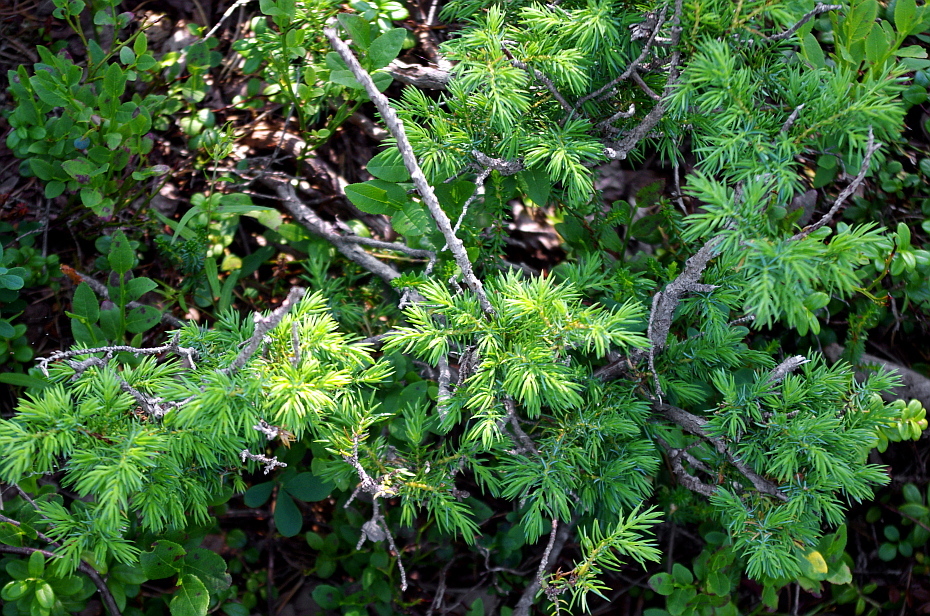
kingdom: Plantae
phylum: Tracheophyta
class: Pinopsida
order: Pinales
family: Cupressaceae
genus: Juniperus
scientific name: Juniperus communis
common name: Common juniper
